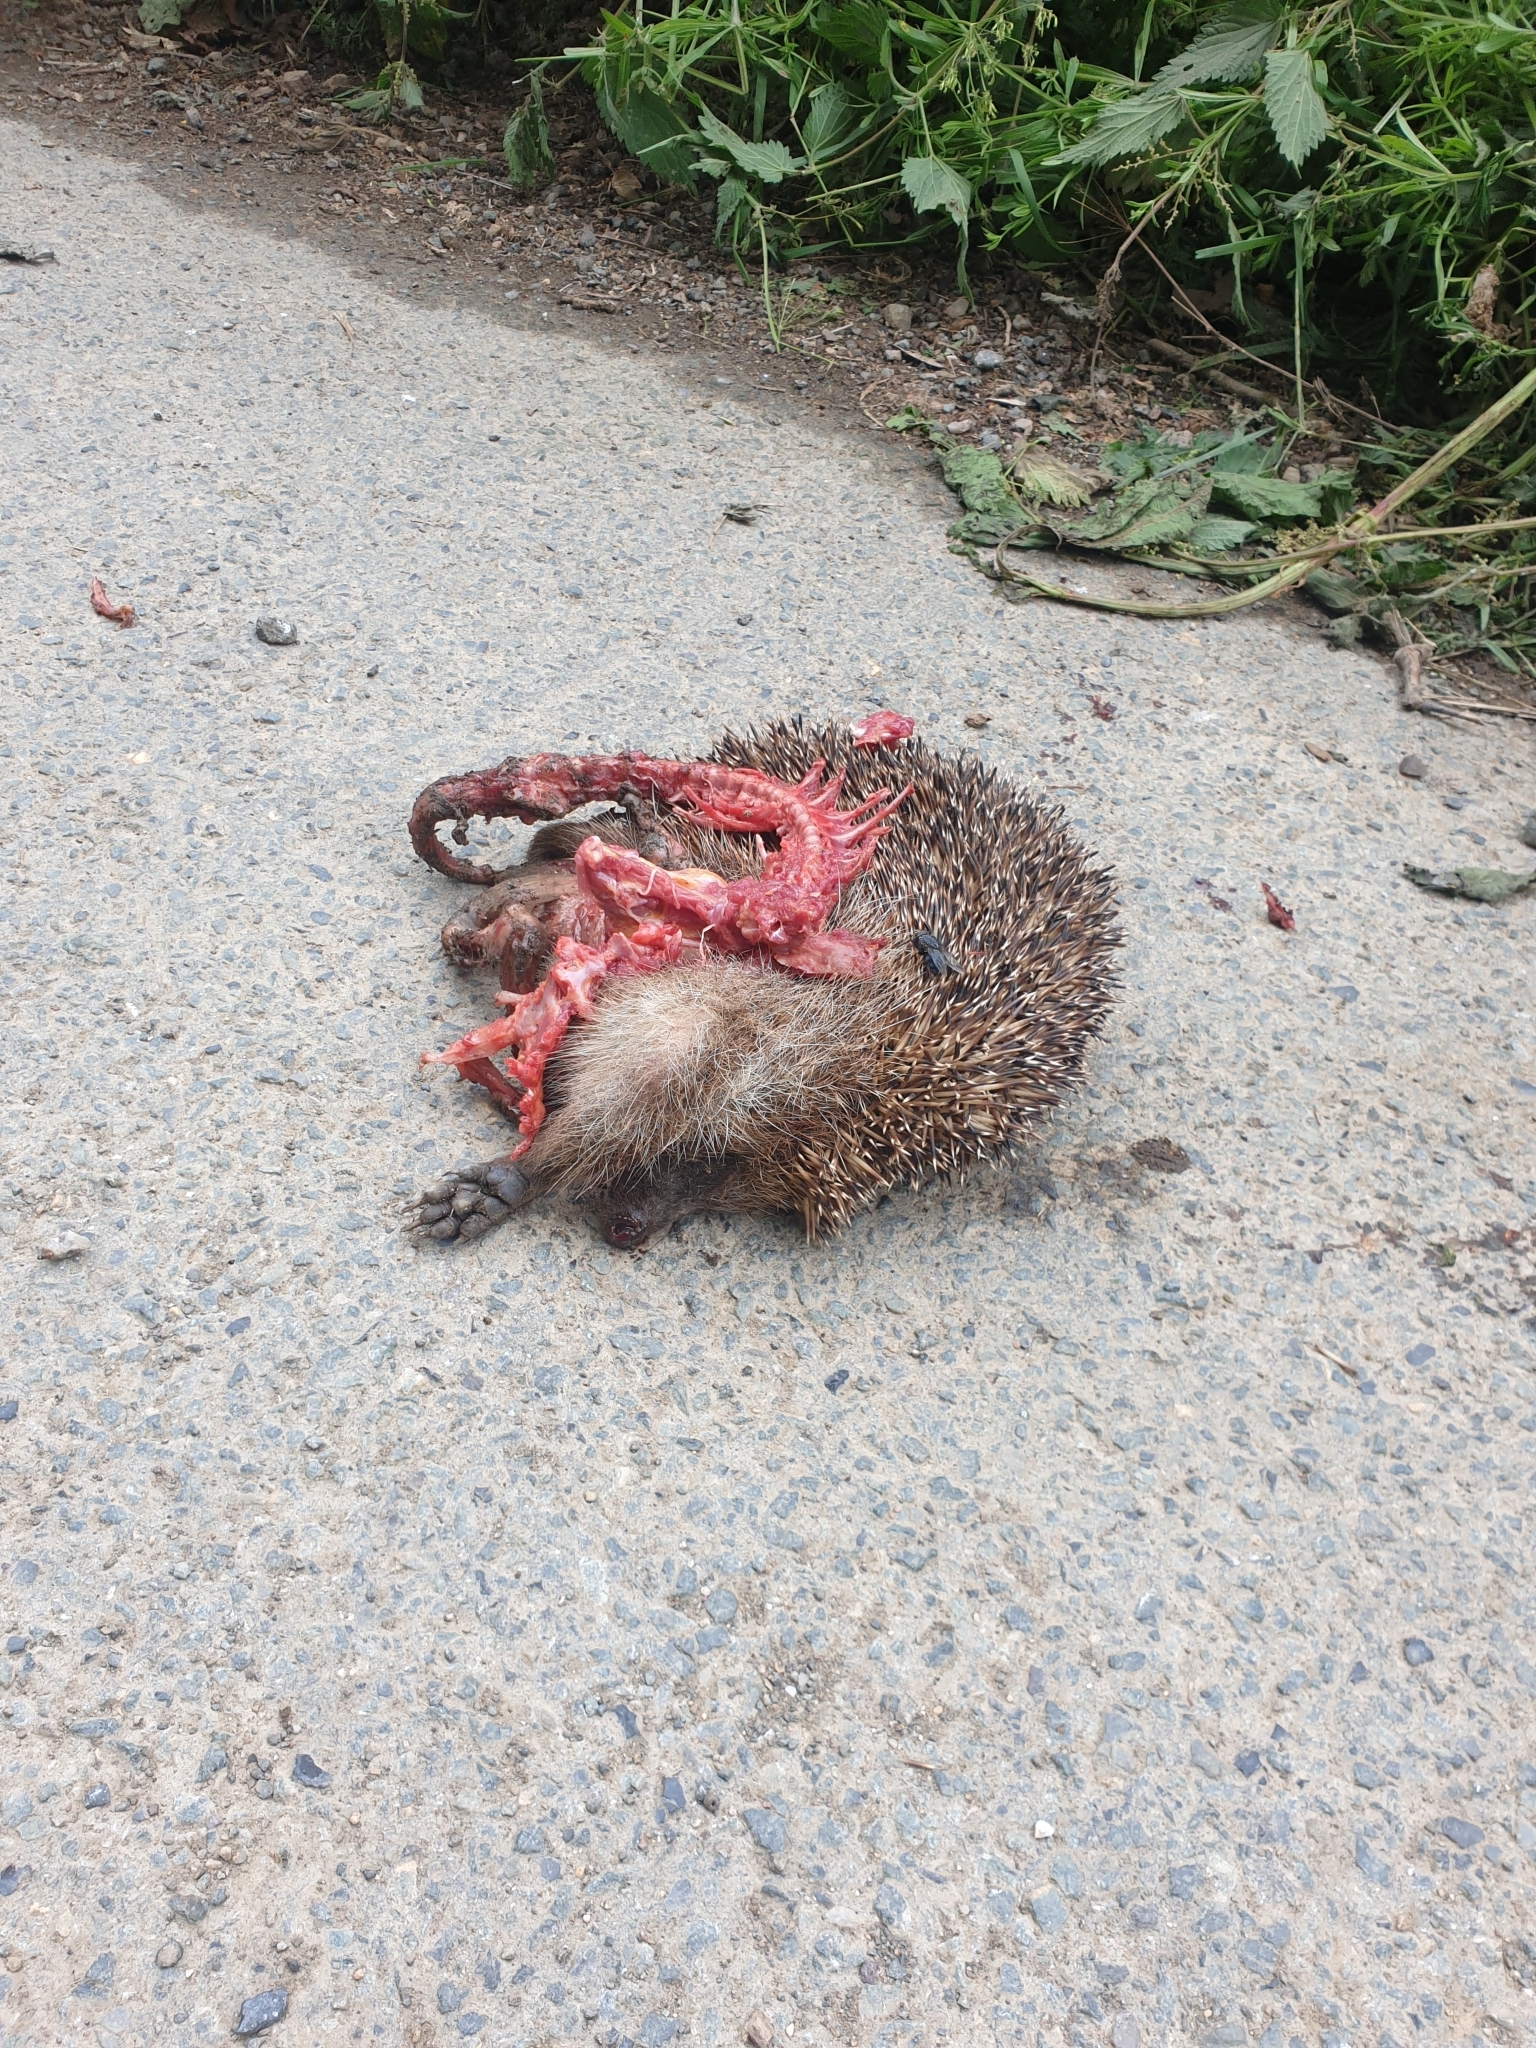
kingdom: Animalia
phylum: Chordata
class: Mammalia
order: Erinaceomorpha
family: Erinaceidae
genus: Erinaceus
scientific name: Erinaceus europaeus
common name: West european hedgehog
